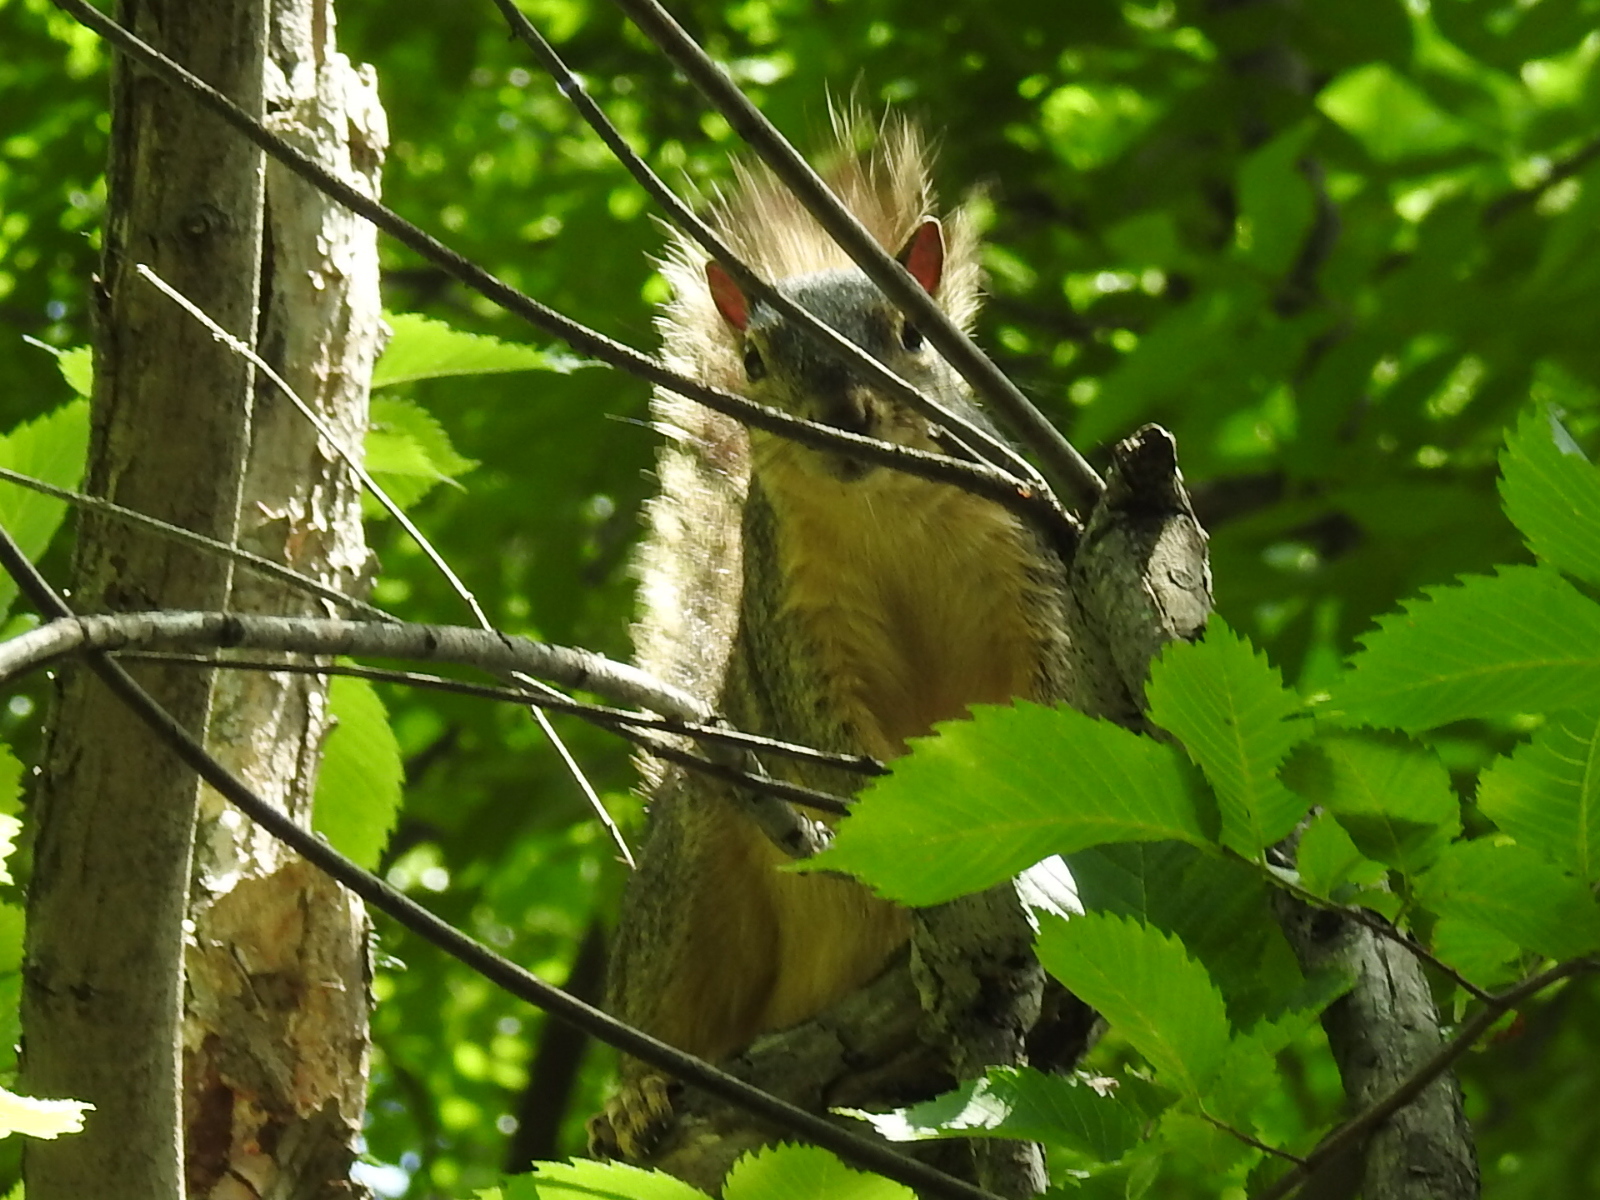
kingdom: Animalia
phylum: Chordata
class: Mammalia
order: Rodentia
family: Sciuridae
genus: Sciurus
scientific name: Sciurus niger
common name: Fox squirrel
